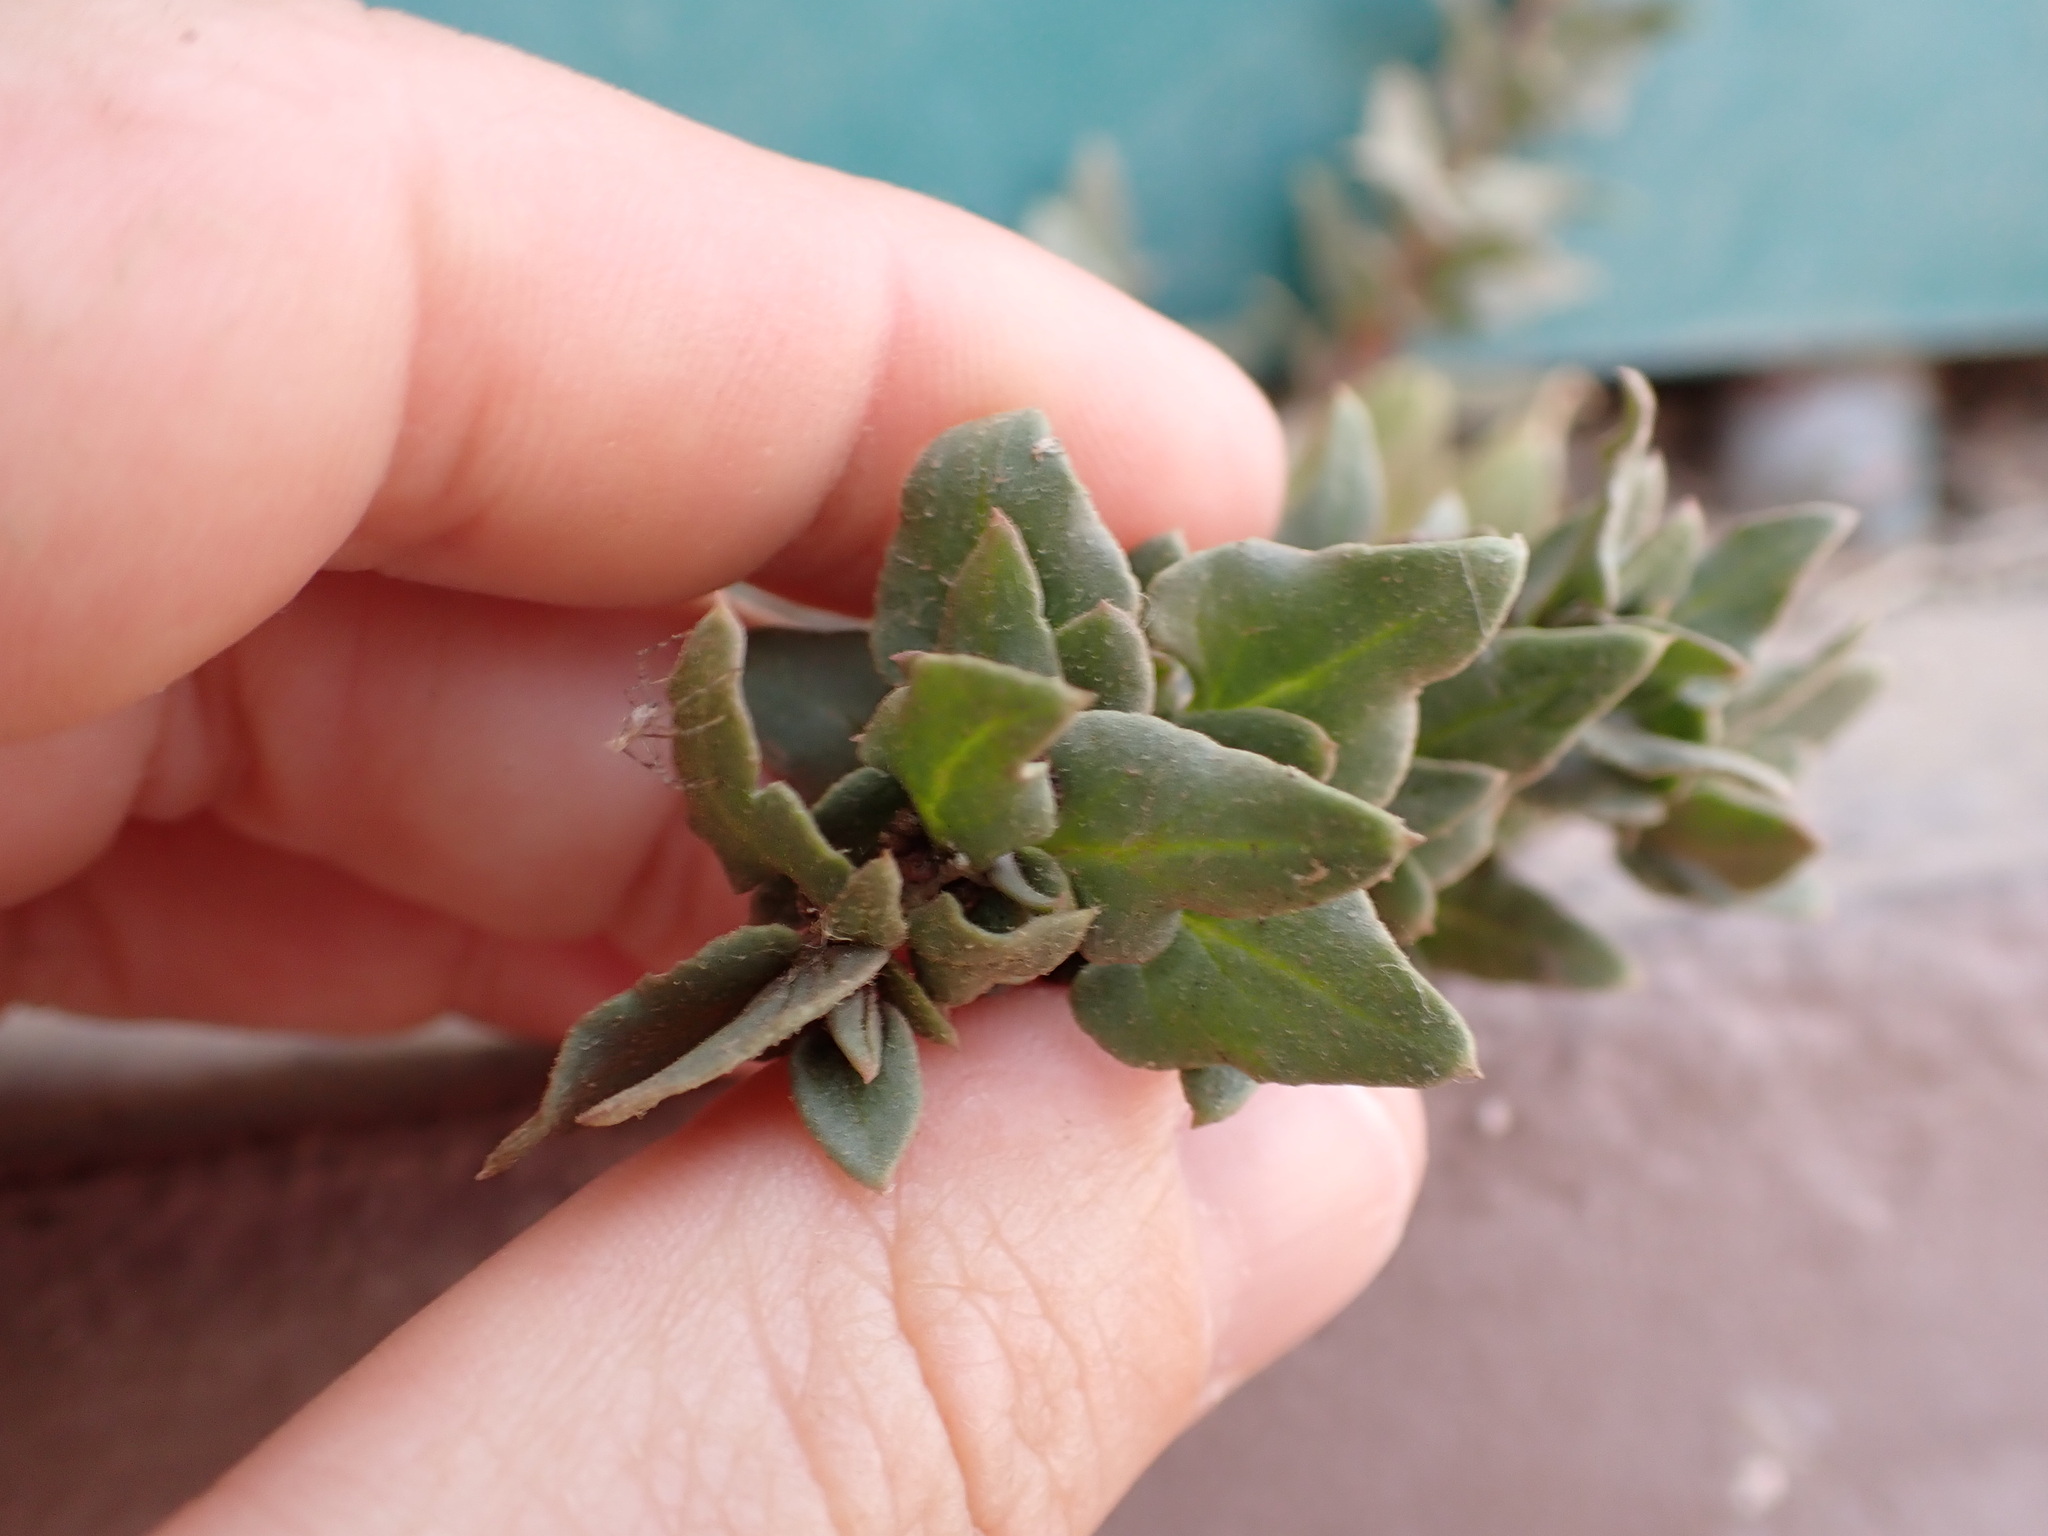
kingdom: Plantae
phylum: Tracheophyta
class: Magnoliopsida
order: Caryophyllales
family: Amaranthaceae
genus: Patellifolia
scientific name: Patellifolia procumbens
